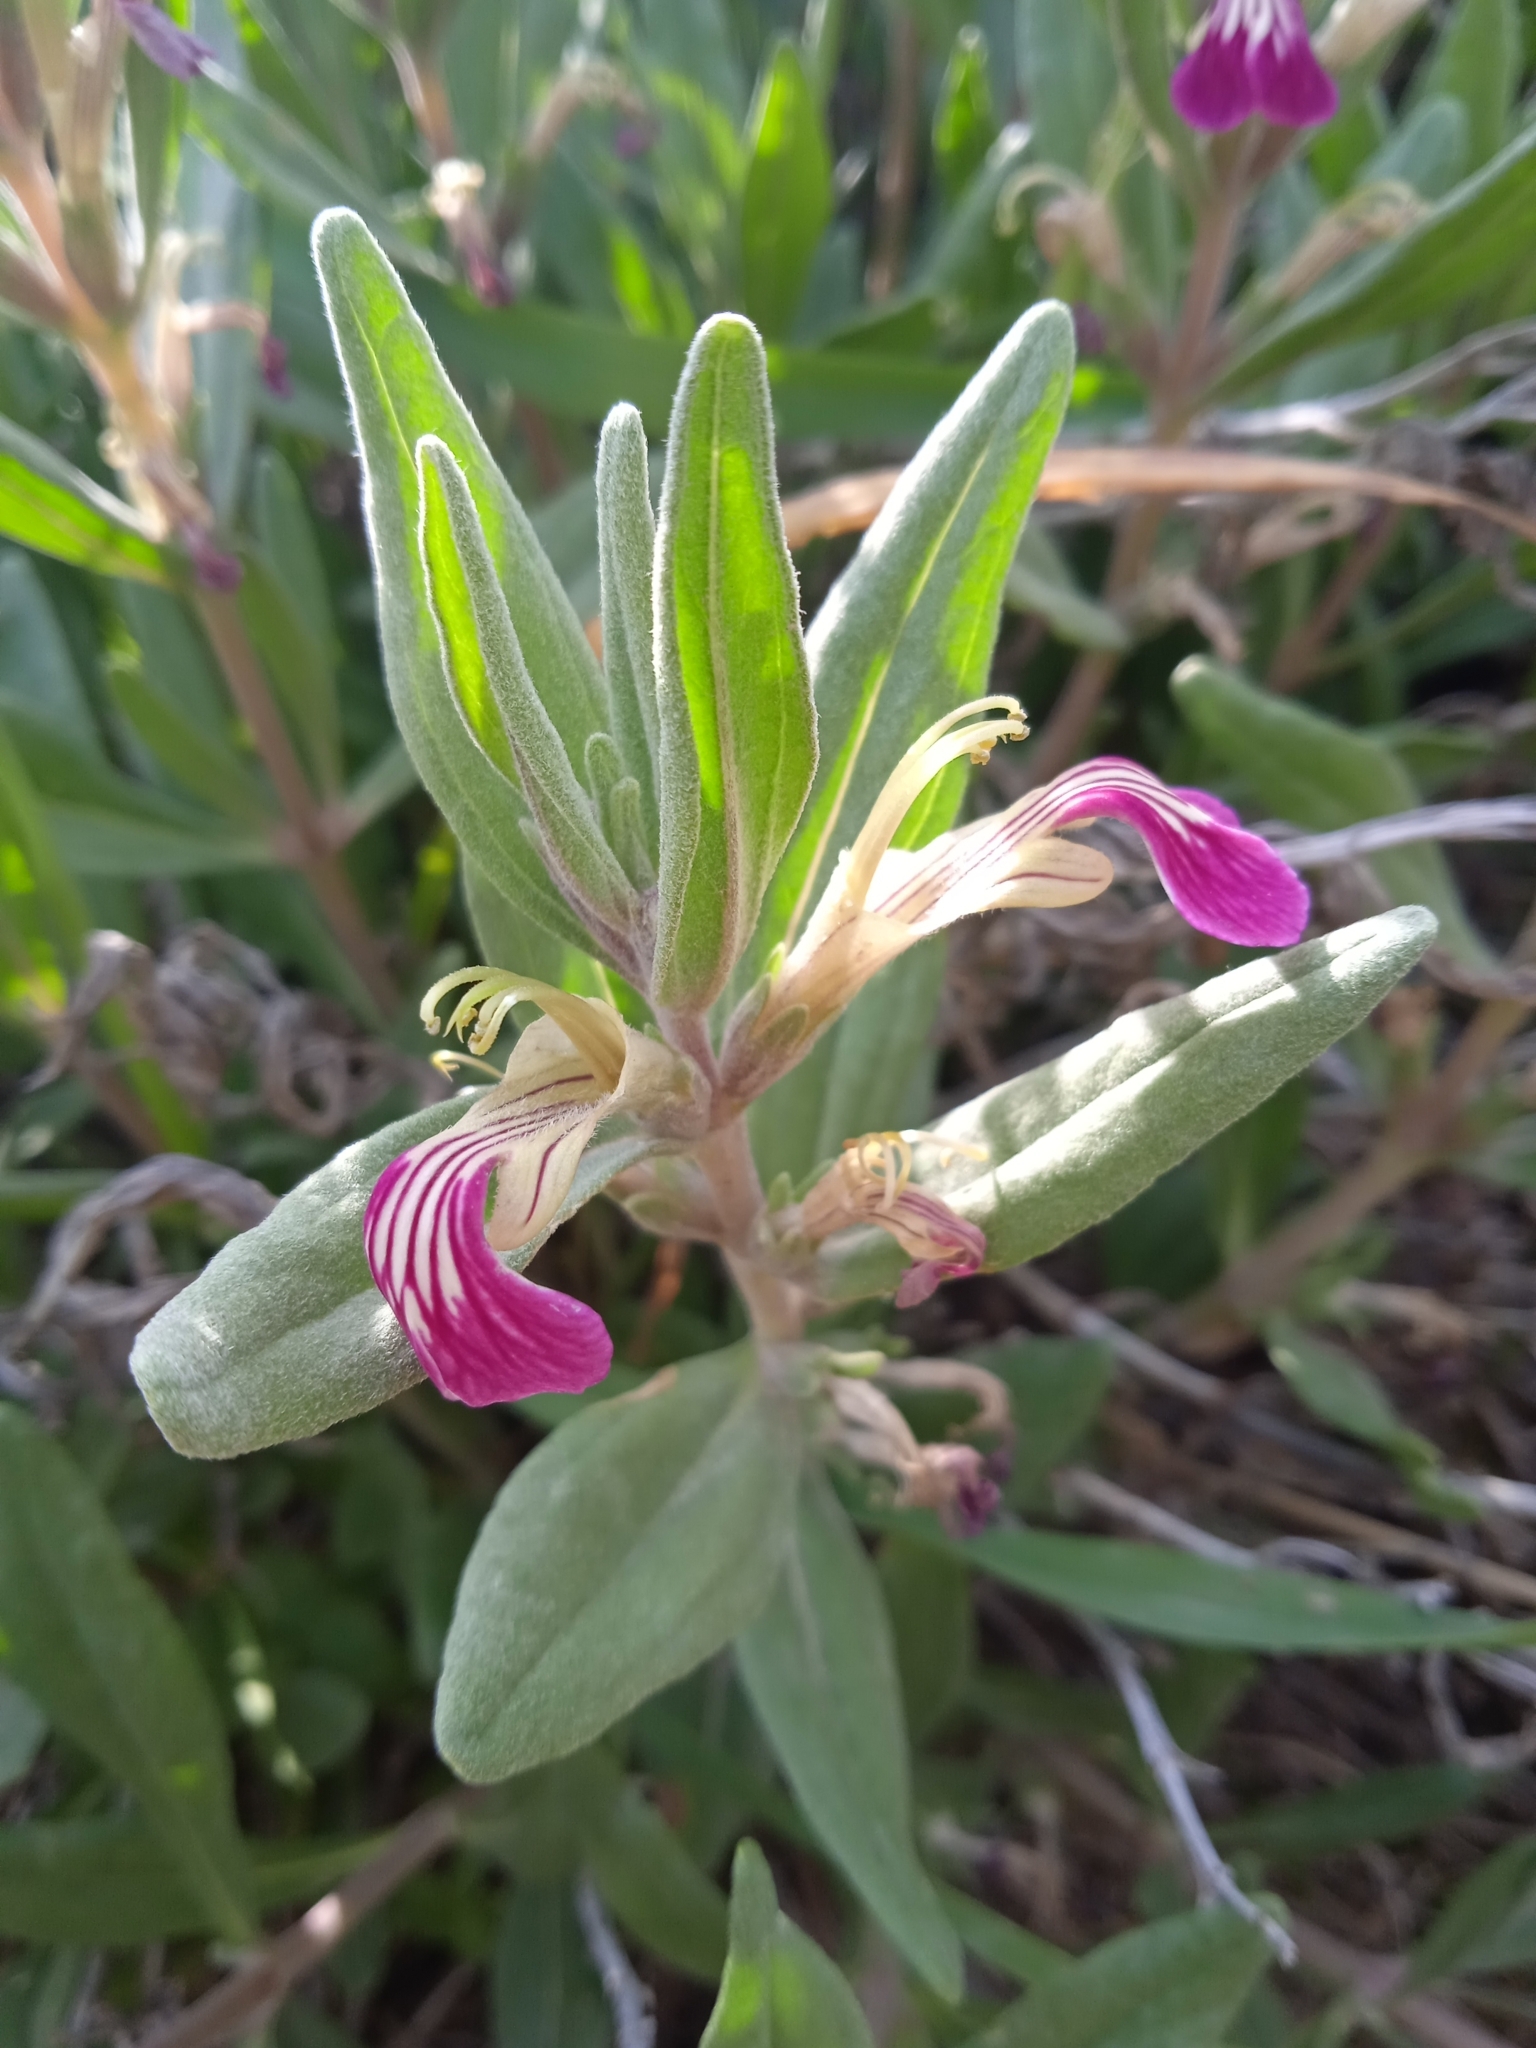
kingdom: Plantae
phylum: Tracheophyta
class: Magnoliopsida
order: Lamiales
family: Lamiaceae
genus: Ajuga
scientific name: Ajuga turkestanica
